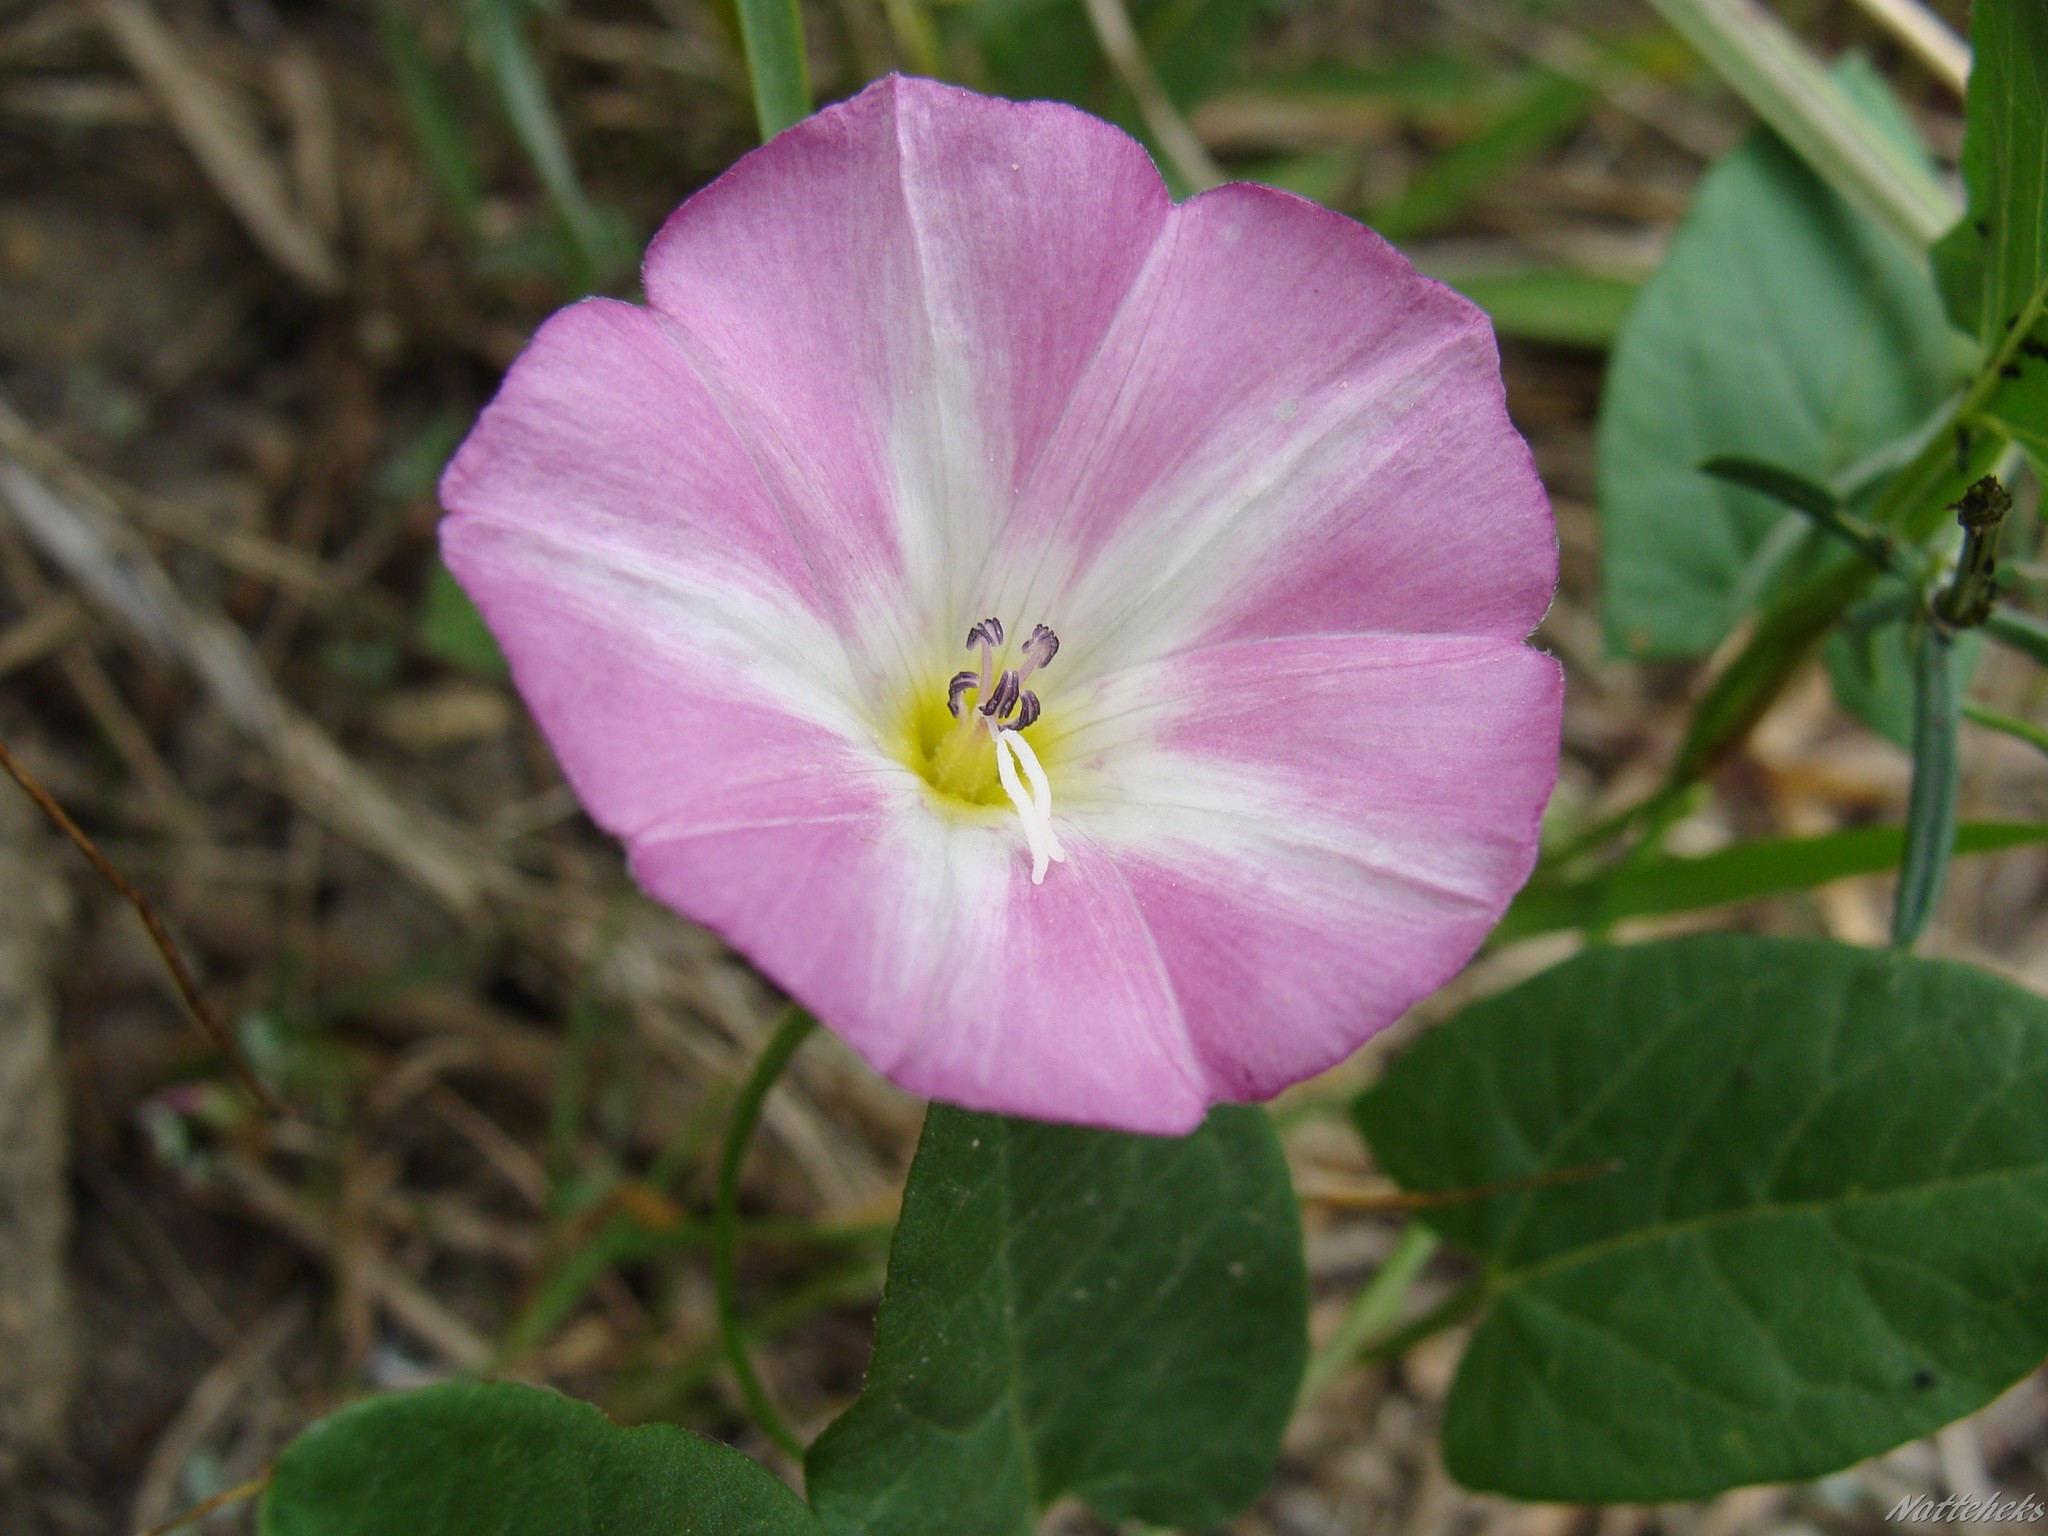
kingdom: Plantae
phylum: Tracheophyta
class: Magnoliopsida
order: Solanales
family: Convolvulaceae
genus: Convolvulus
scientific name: Convolvulus arvensis
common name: Field bindweed
